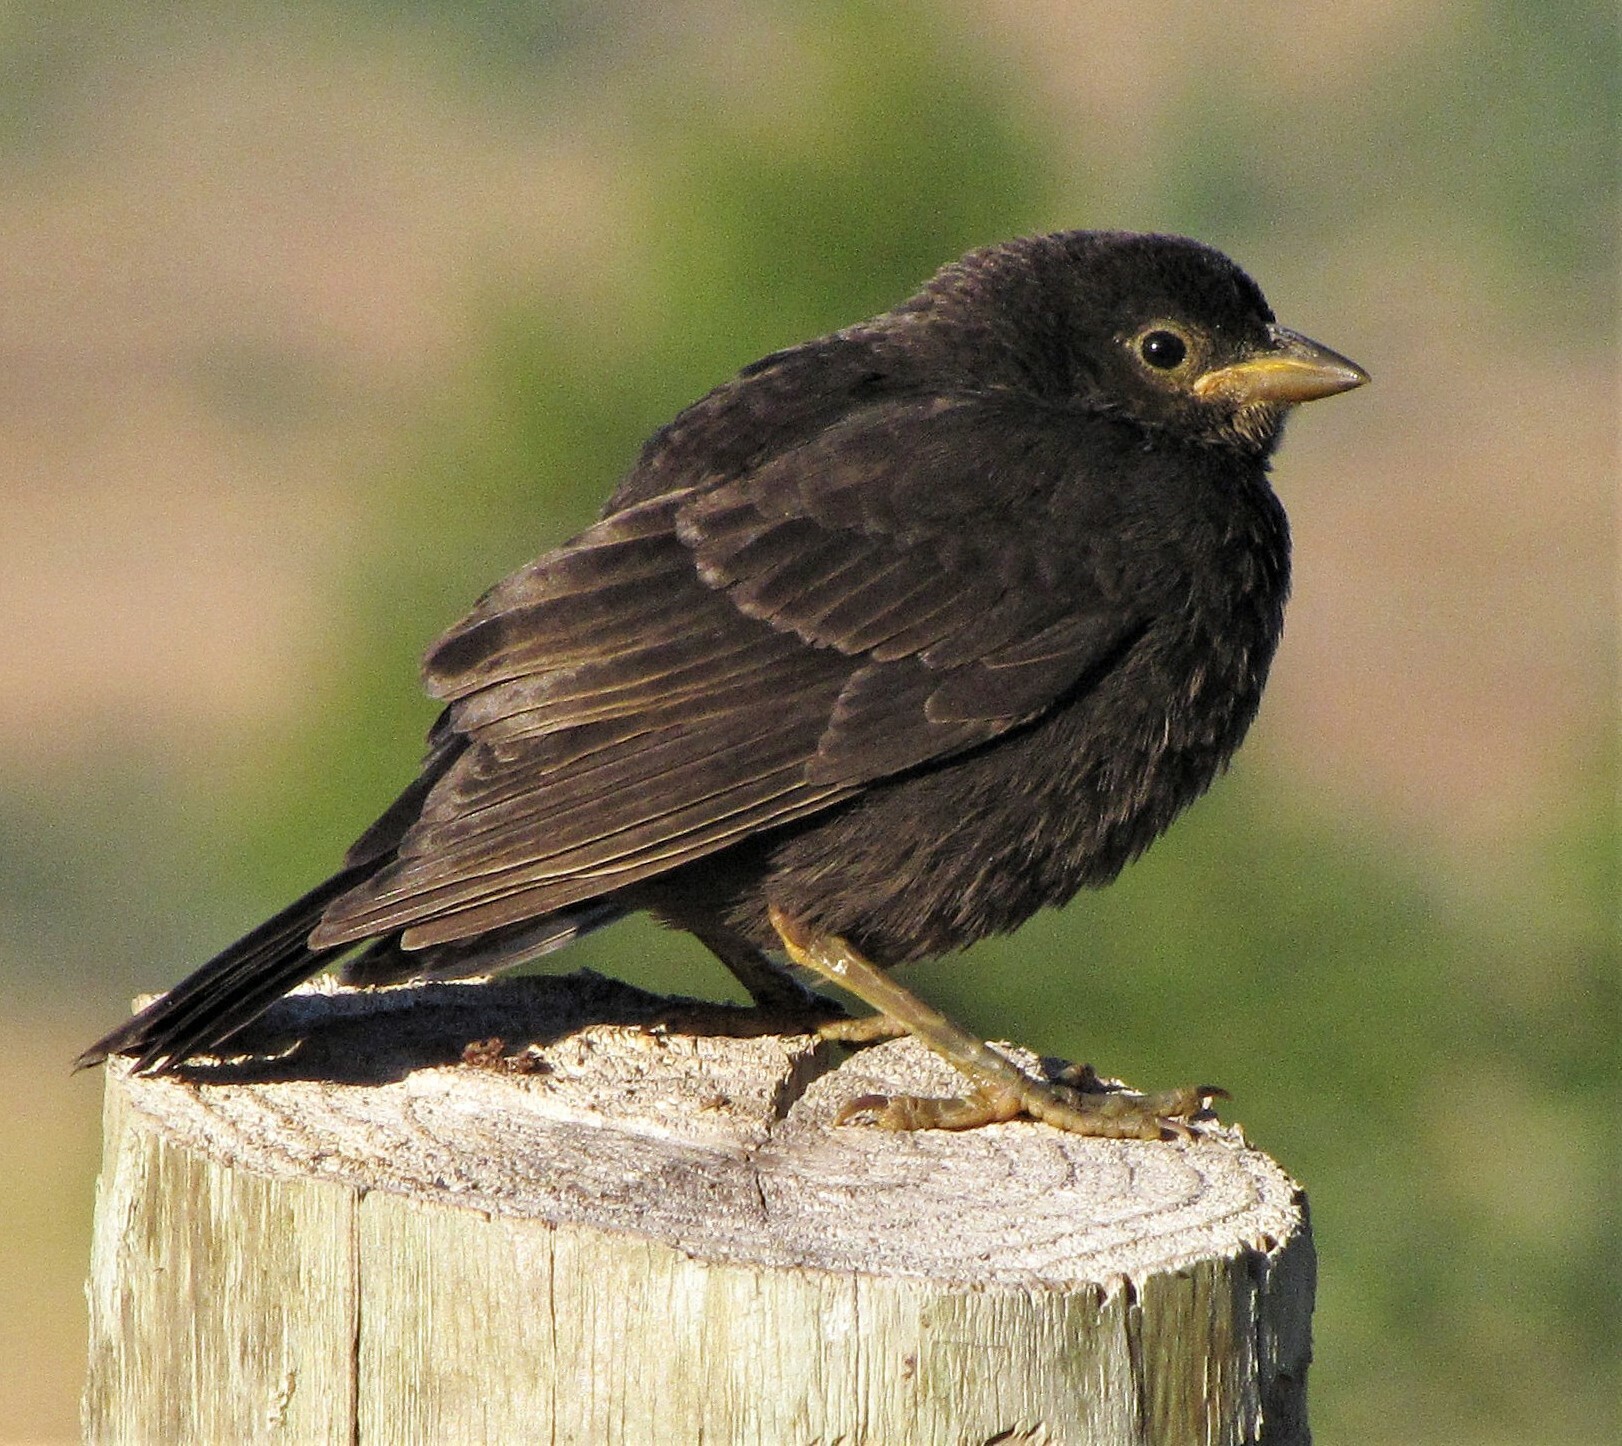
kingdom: Animalia
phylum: Chordata
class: Aves
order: Passeriformes
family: Icteridae
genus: Molothrus
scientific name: Molothrus bonariensis
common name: Shiny cowbird
